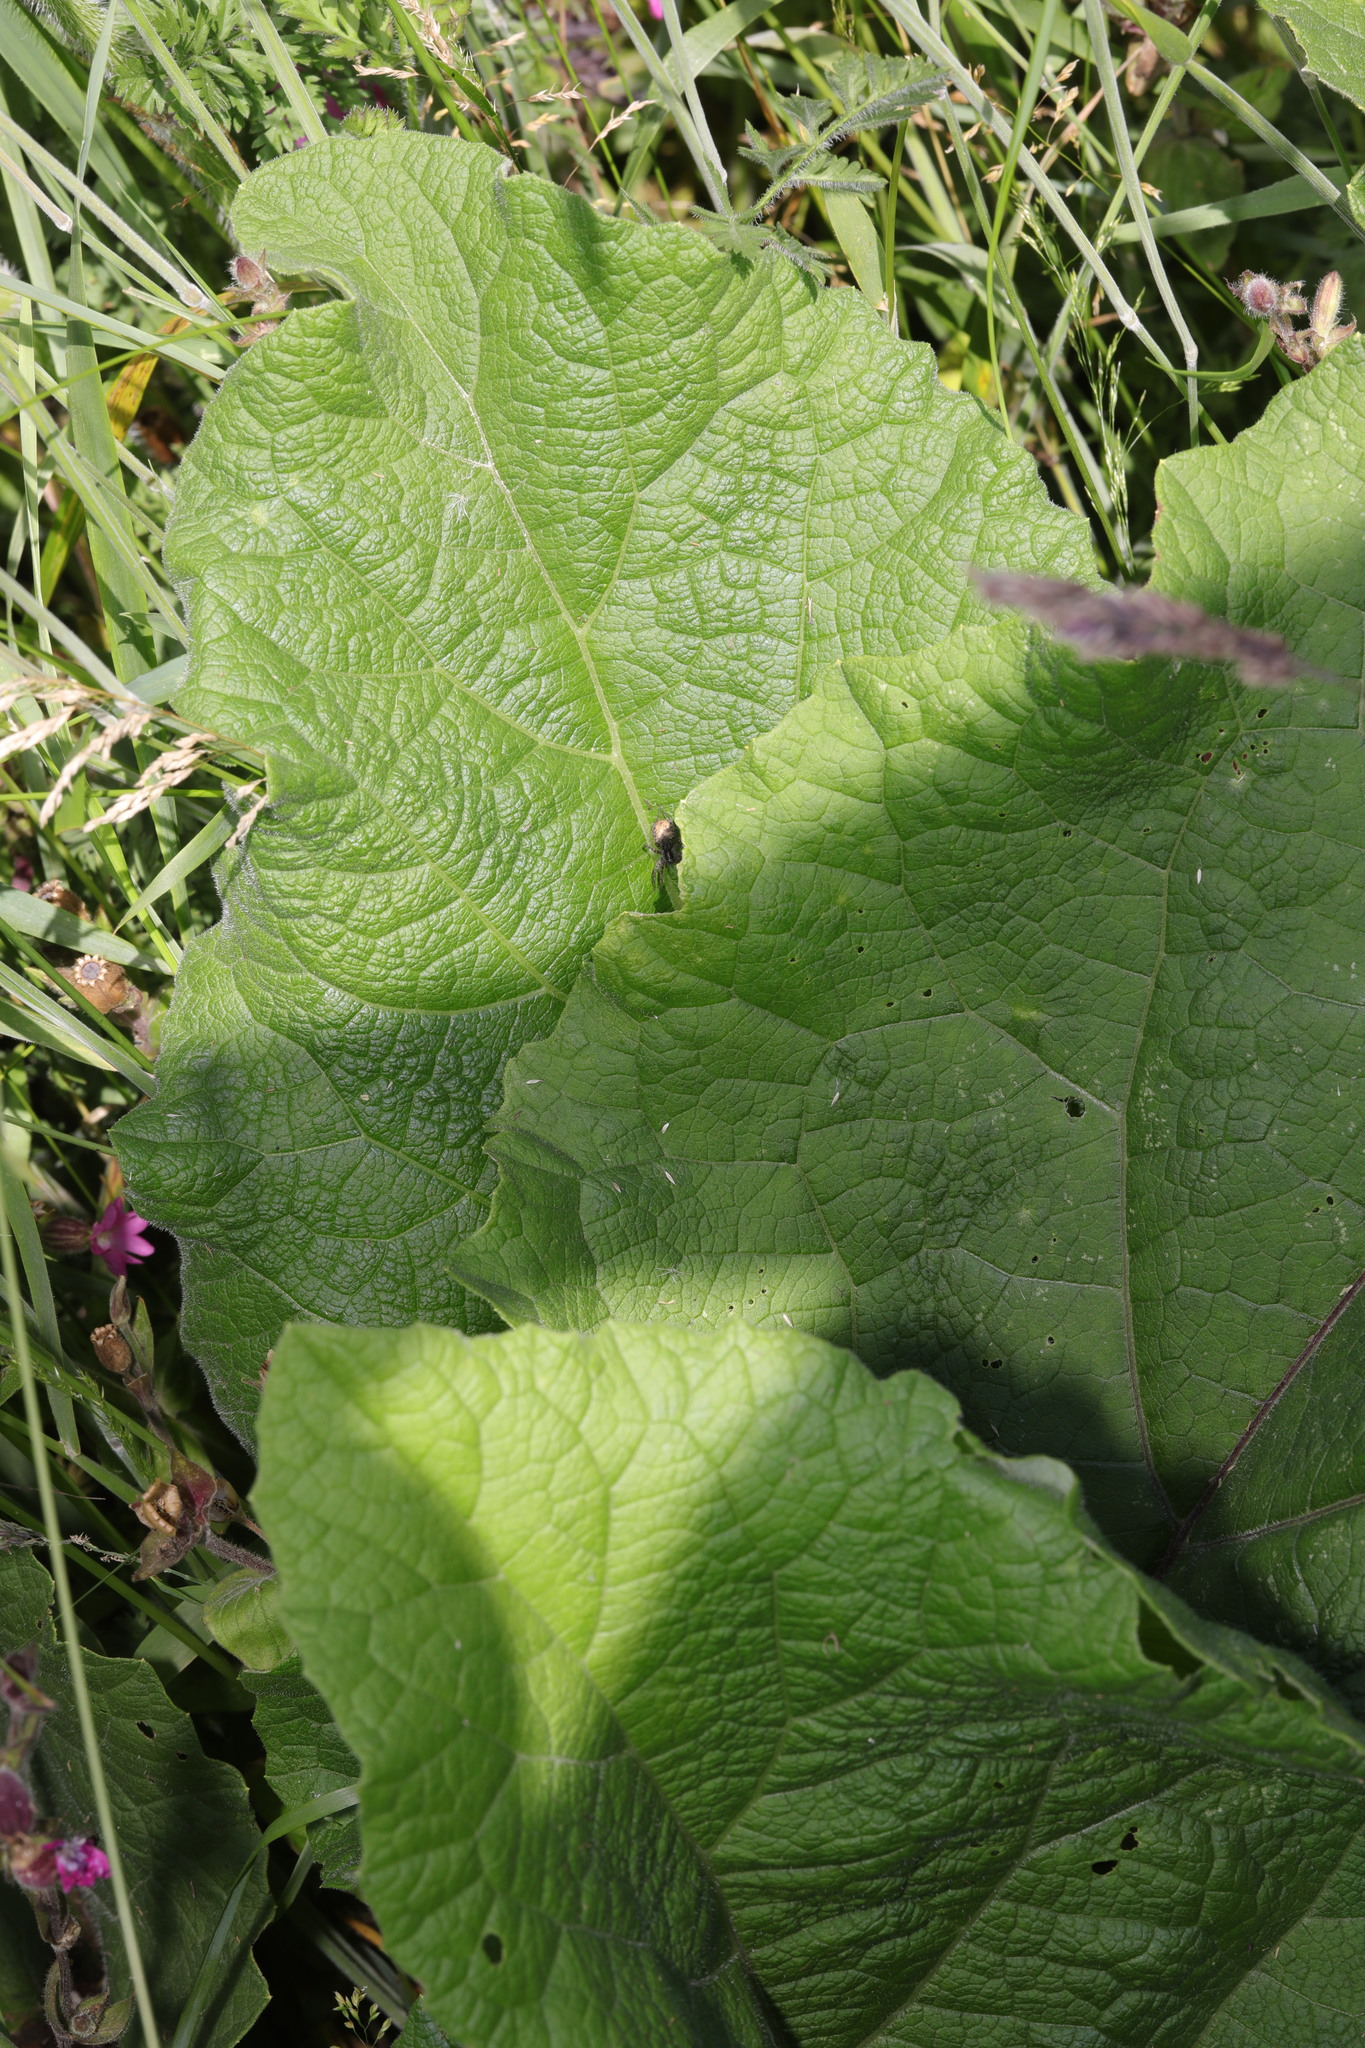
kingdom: Plantae
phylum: Tracheophyta
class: Magnoliopsida
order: Asterales
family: Asteraceae
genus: Arctium
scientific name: Arctium minus
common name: Lesser burdock
